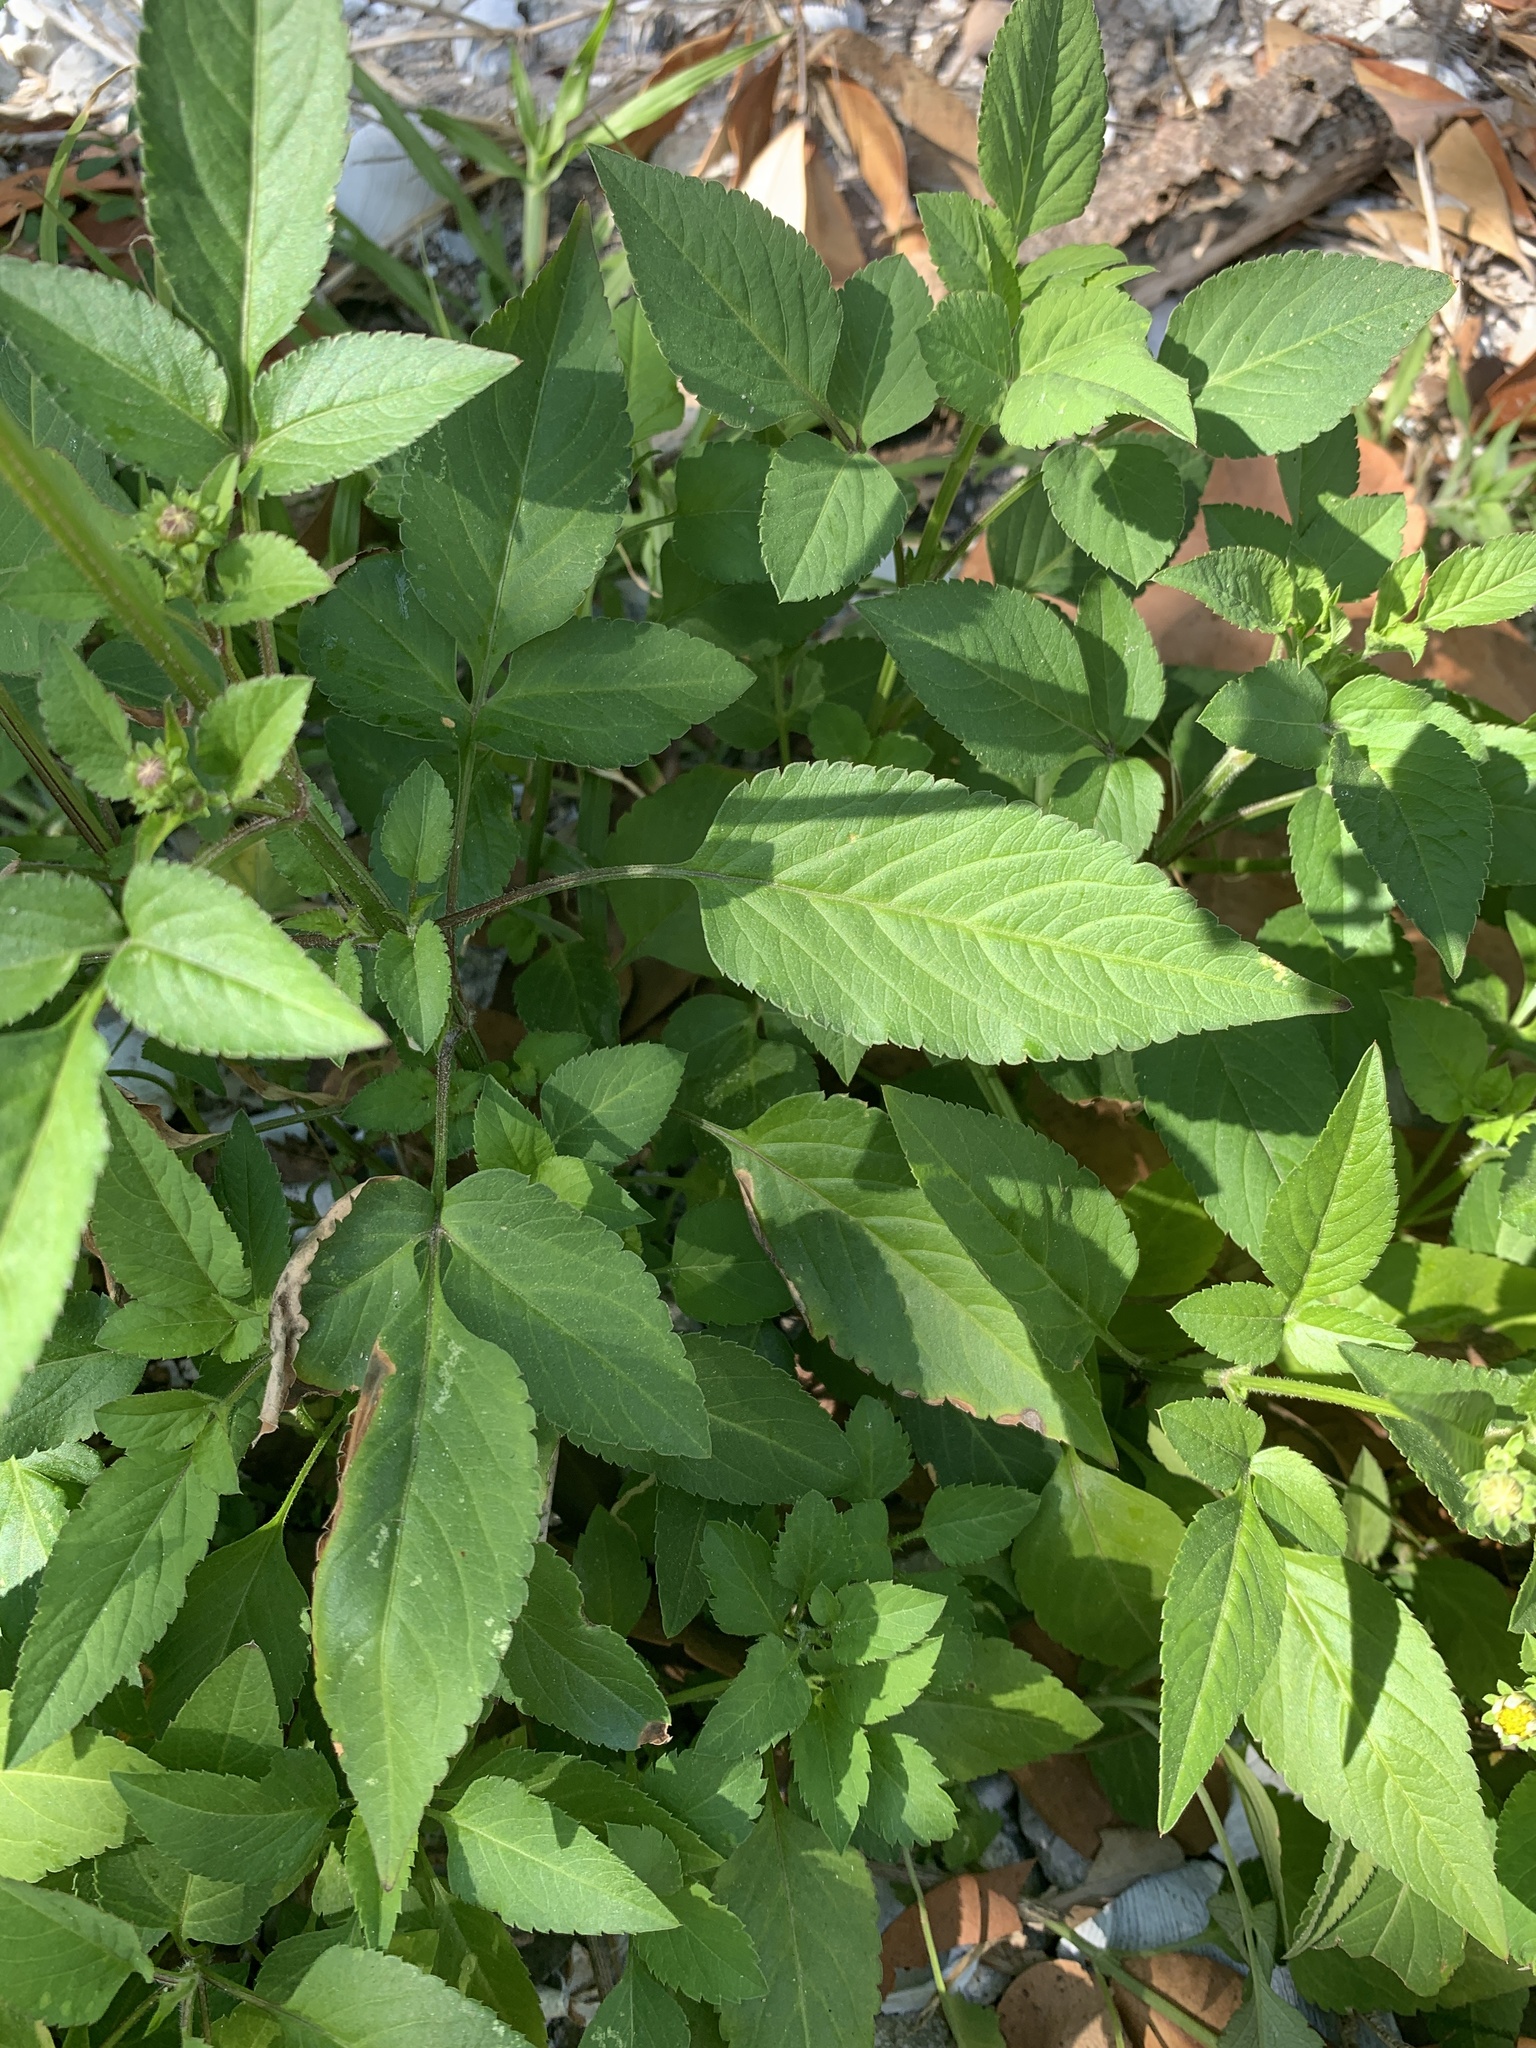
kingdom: Plantae
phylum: Tracheophyta
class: Magnoliopsida
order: Asterales
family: Asteraceae
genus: Bidens
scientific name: Bidens alba
